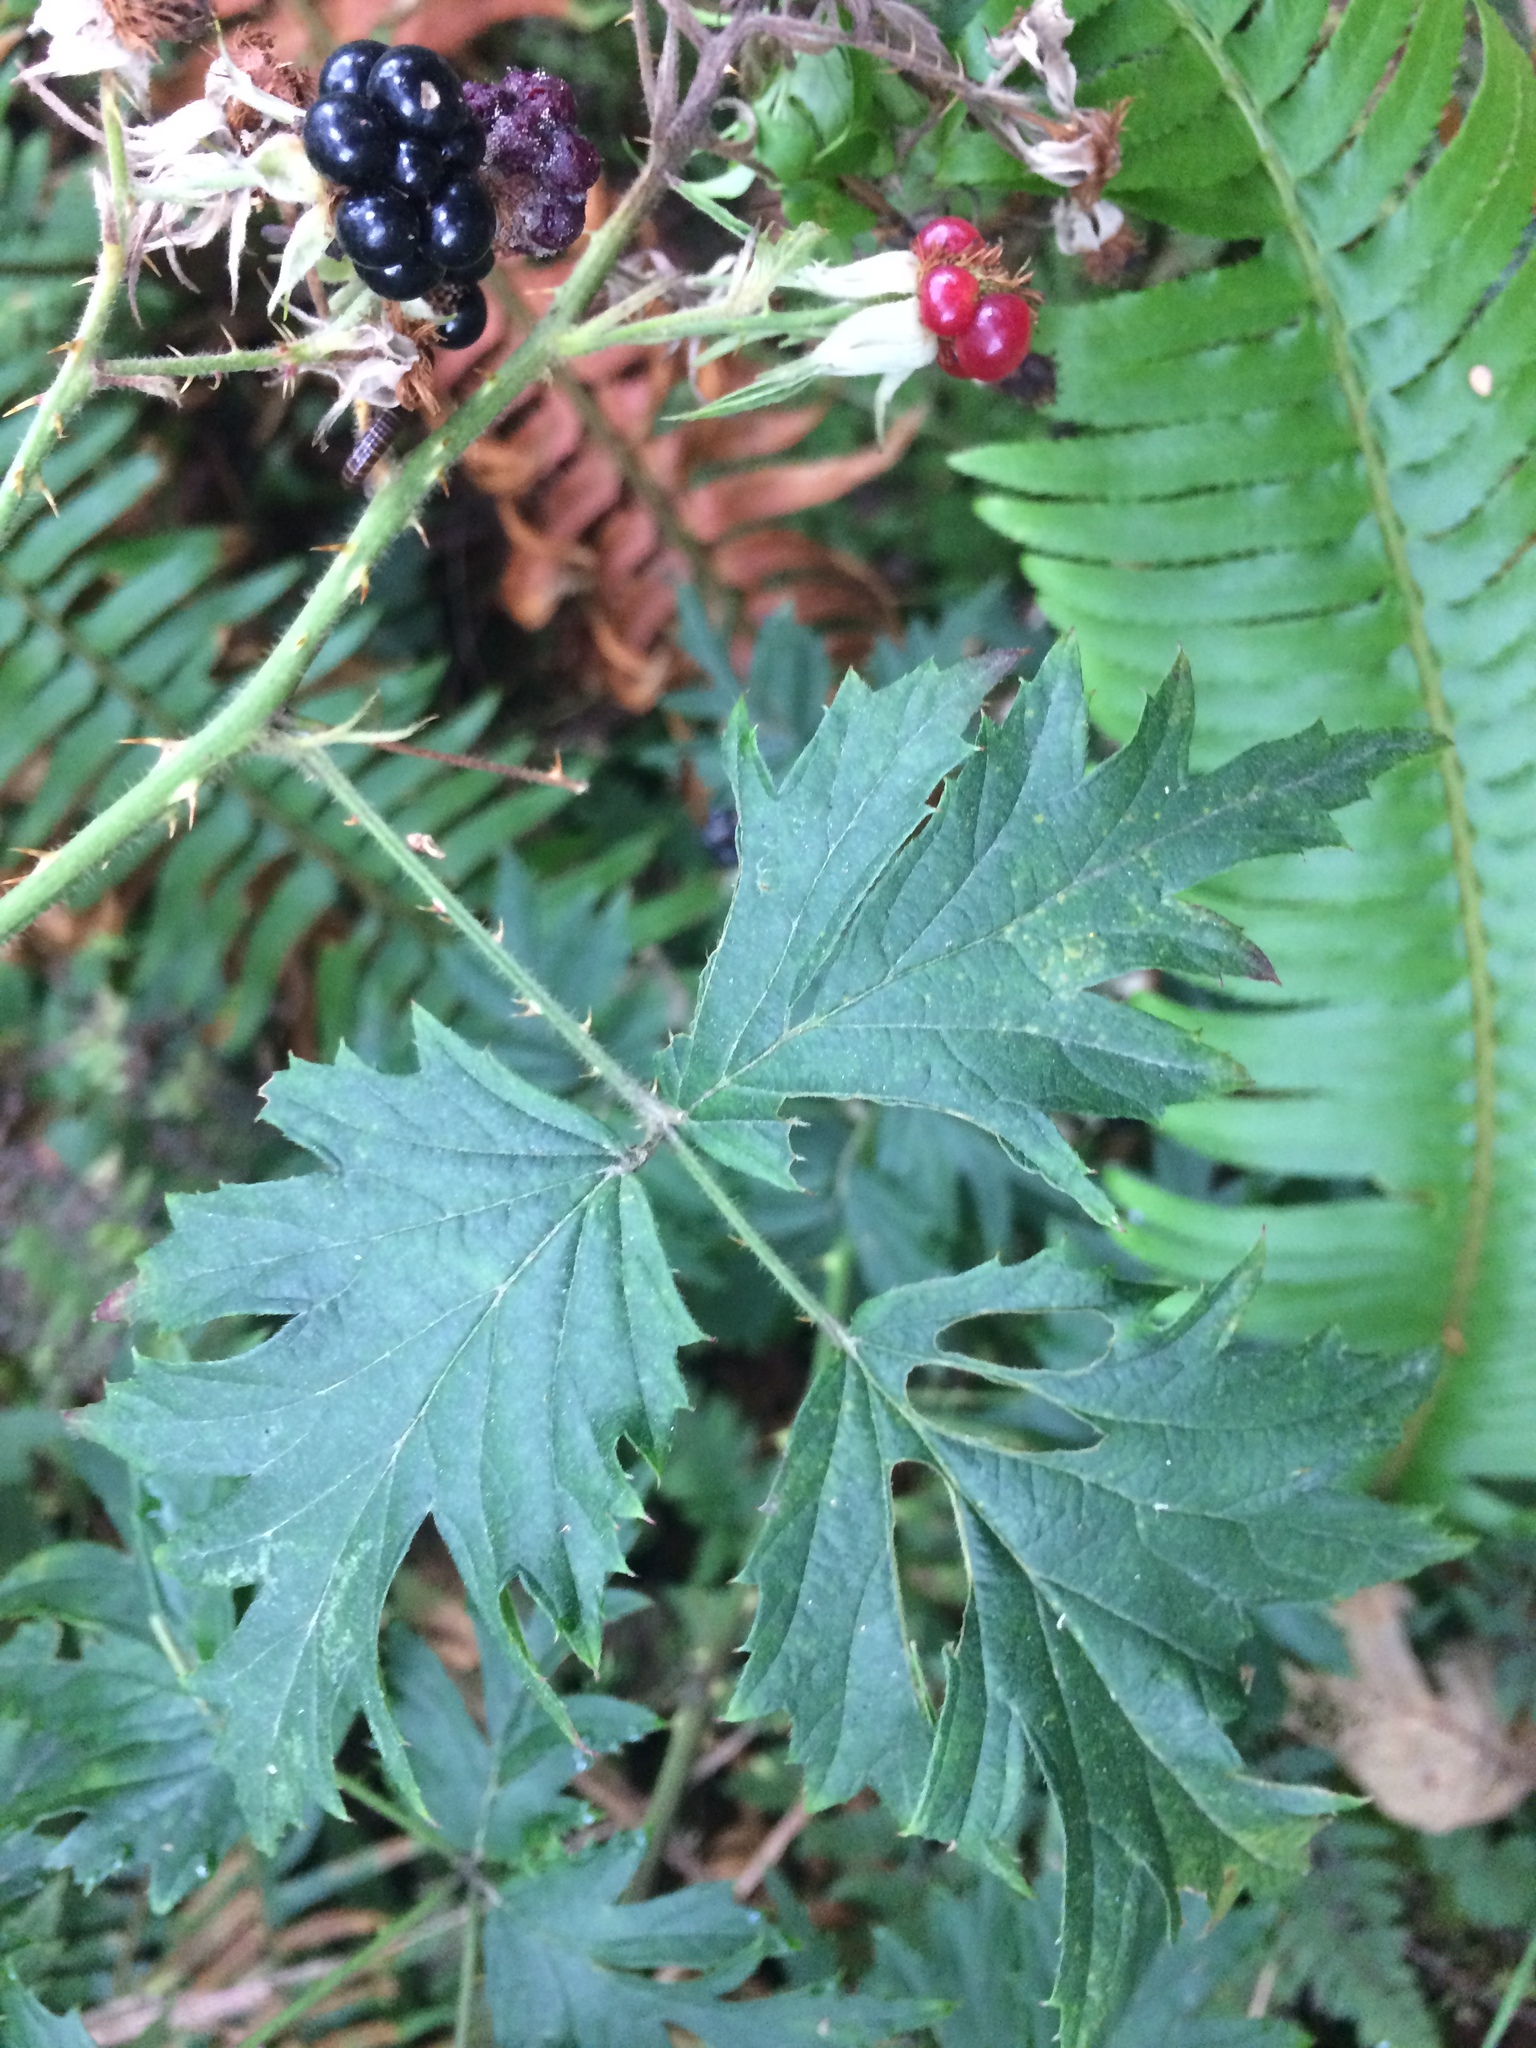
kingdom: Plantae
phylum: Tracheophyta
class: Magnoliopsida
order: Rosales
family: Rosaceae
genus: Rubus
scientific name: Rubus laciniatus
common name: Evergreen blackberry
